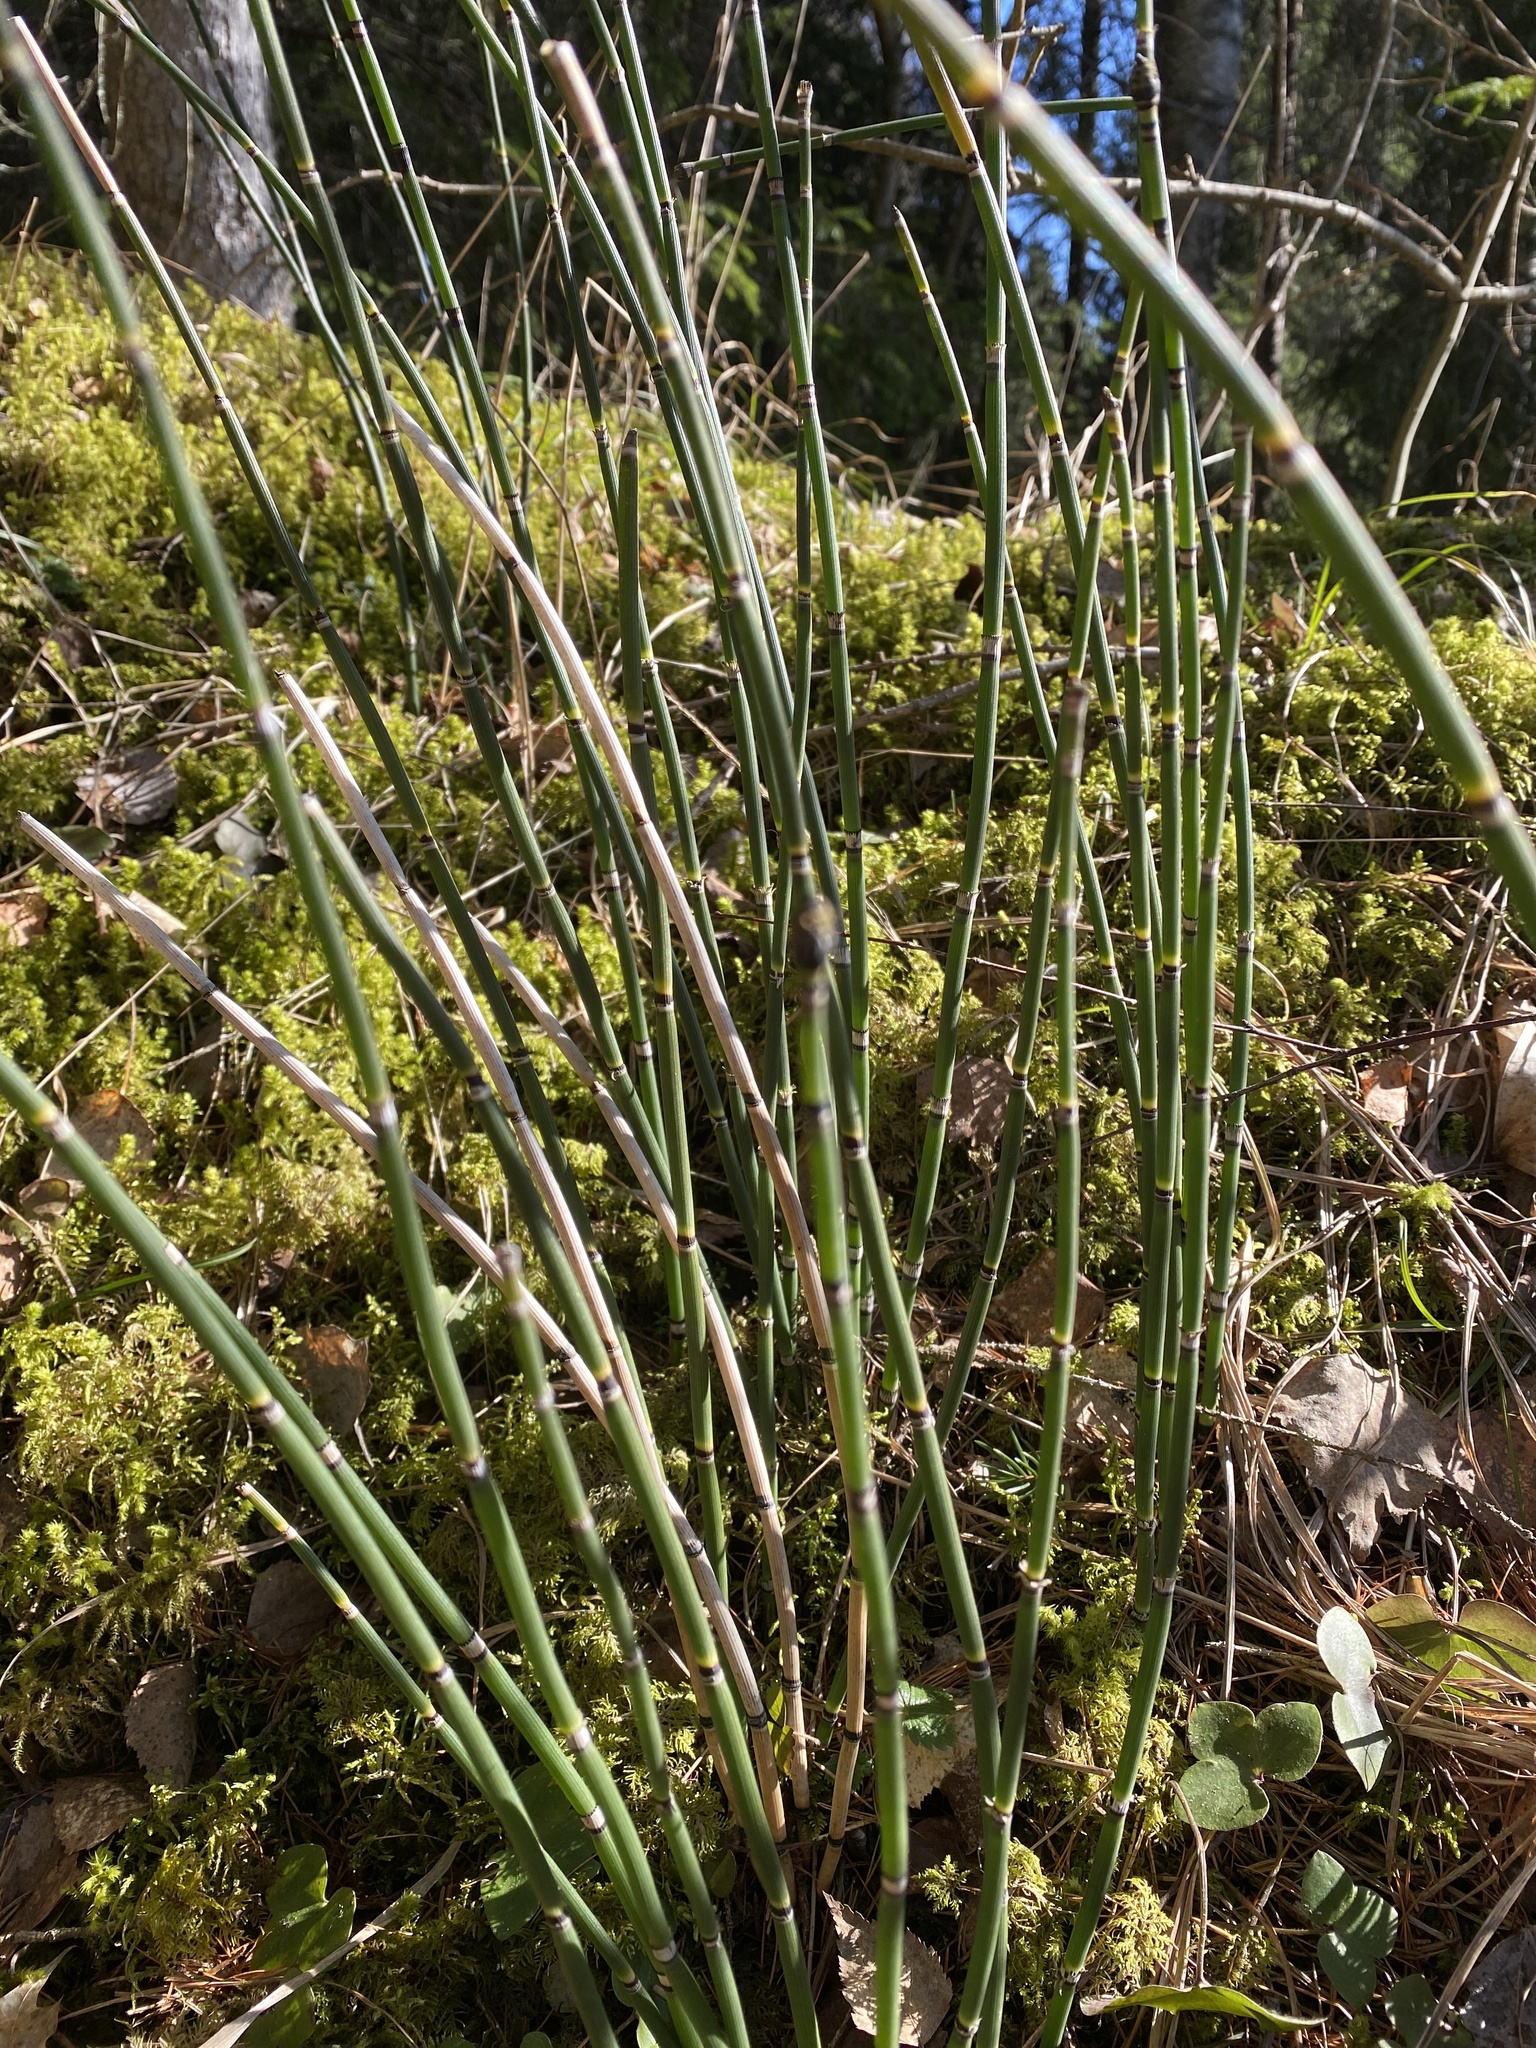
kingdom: Plantae
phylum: Tracheophyta
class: Polypodiopsida
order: Equisetales
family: Equisetaceae
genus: Equisetum
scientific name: Equisetum hyemale
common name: Rough horsetail
